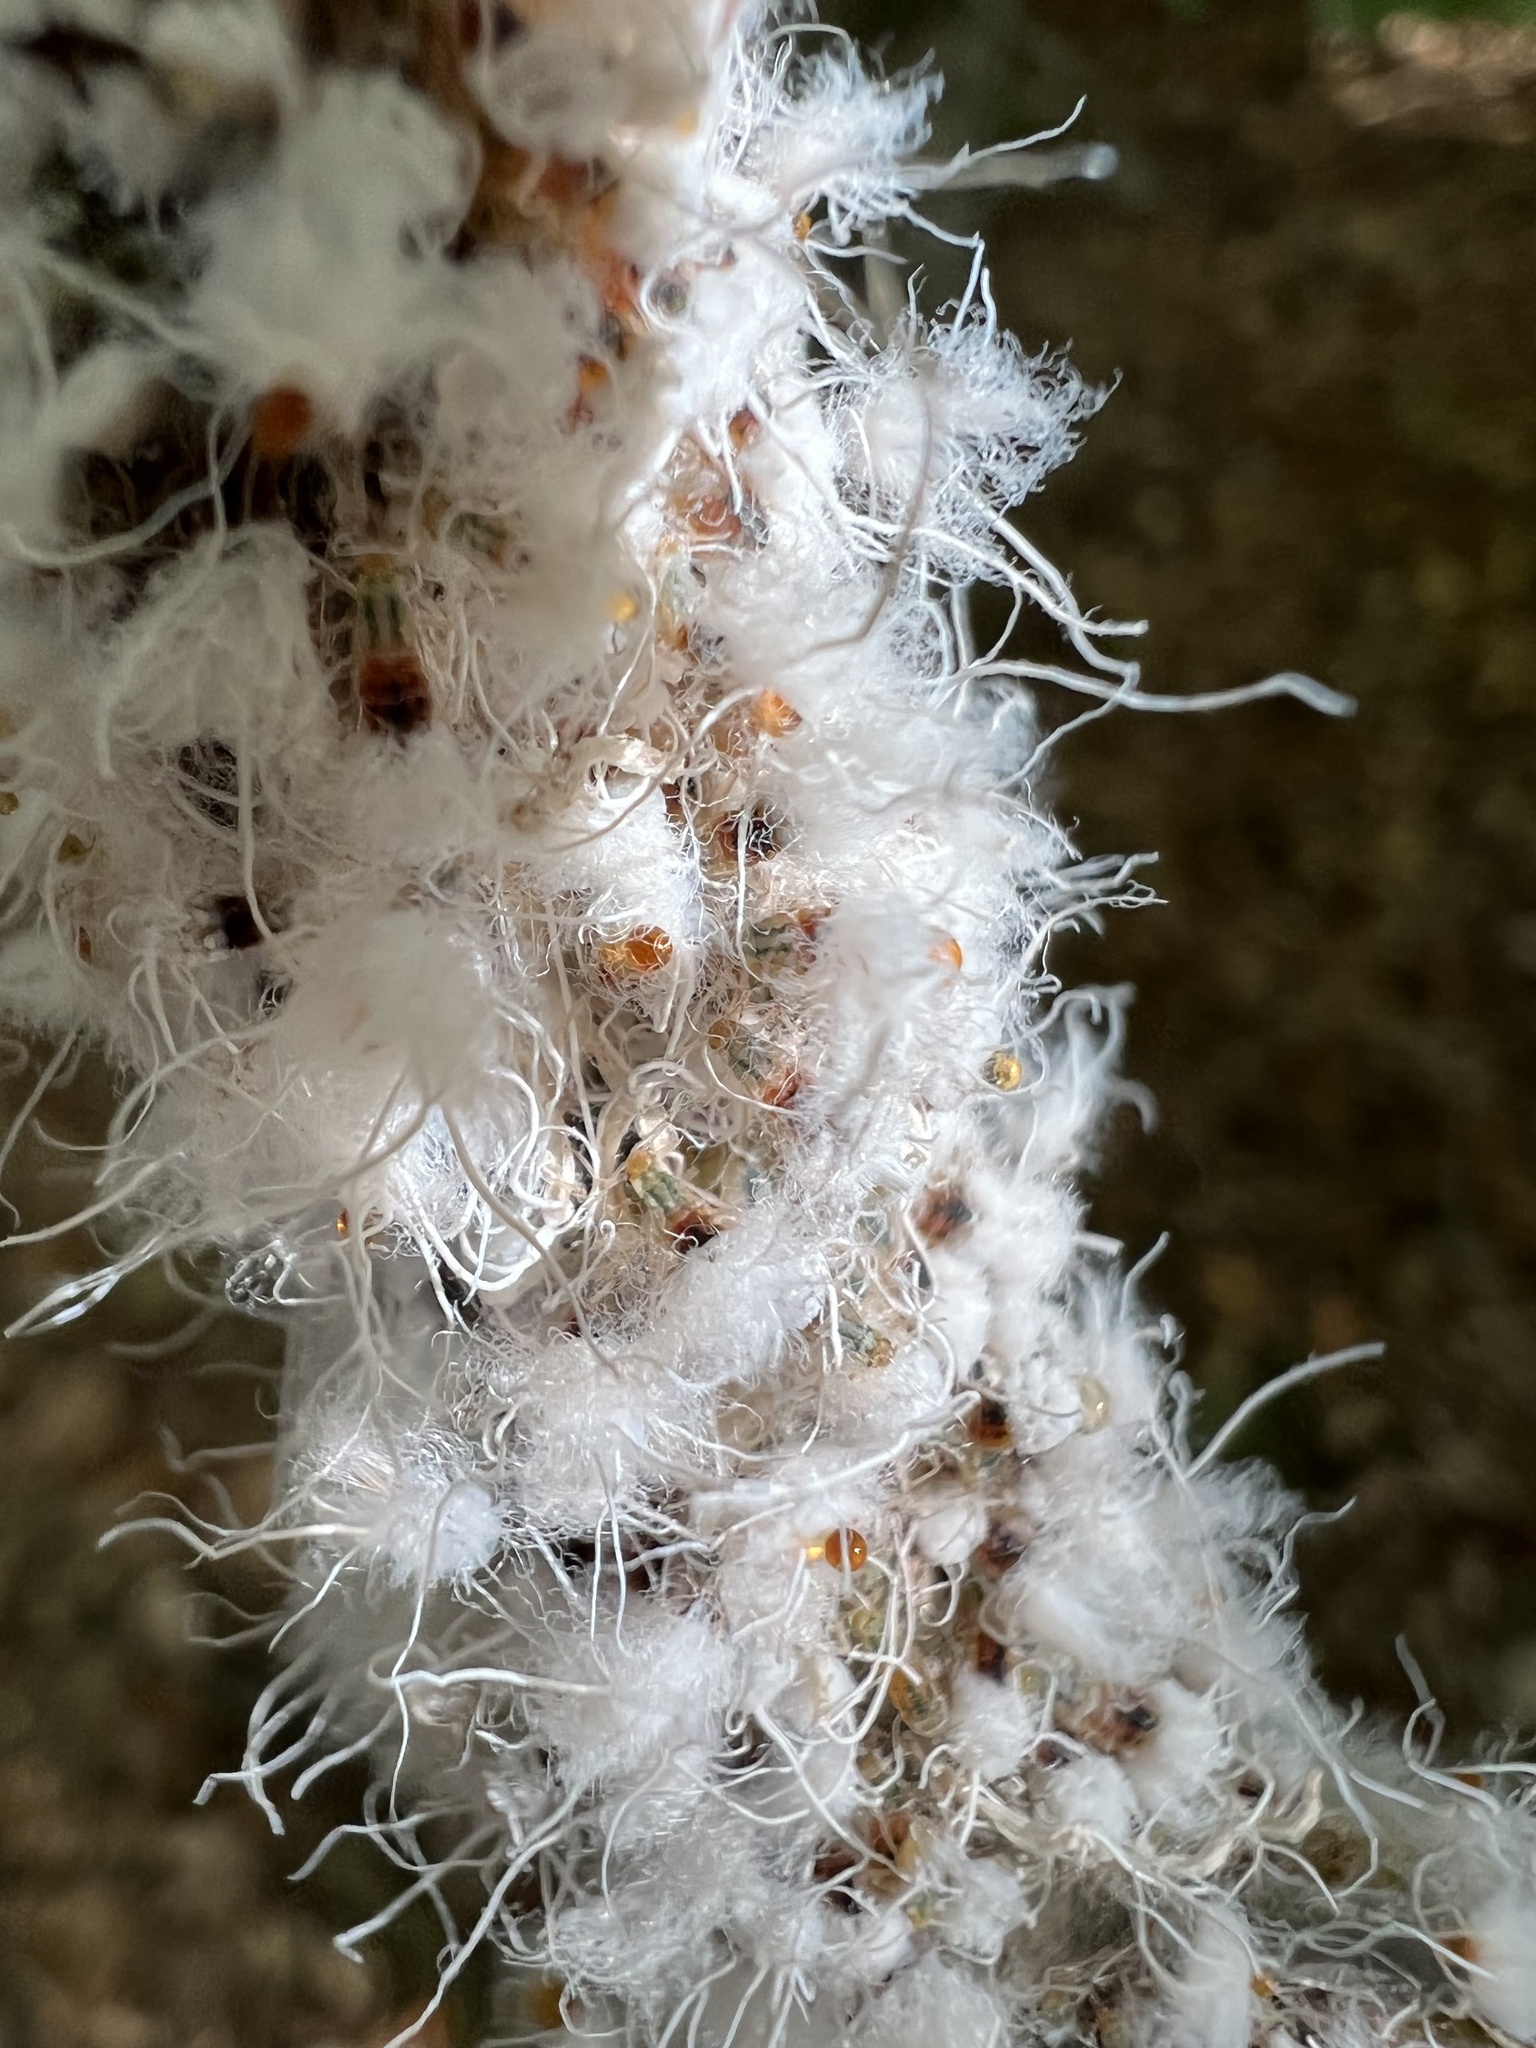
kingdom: Animalia
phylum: Arthropoda
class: Insecta
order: Hemiptera
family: Aphididae
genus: Grylloprociphilus
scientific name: Grylloprociphilus imbricator
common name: Beech blight aphid
